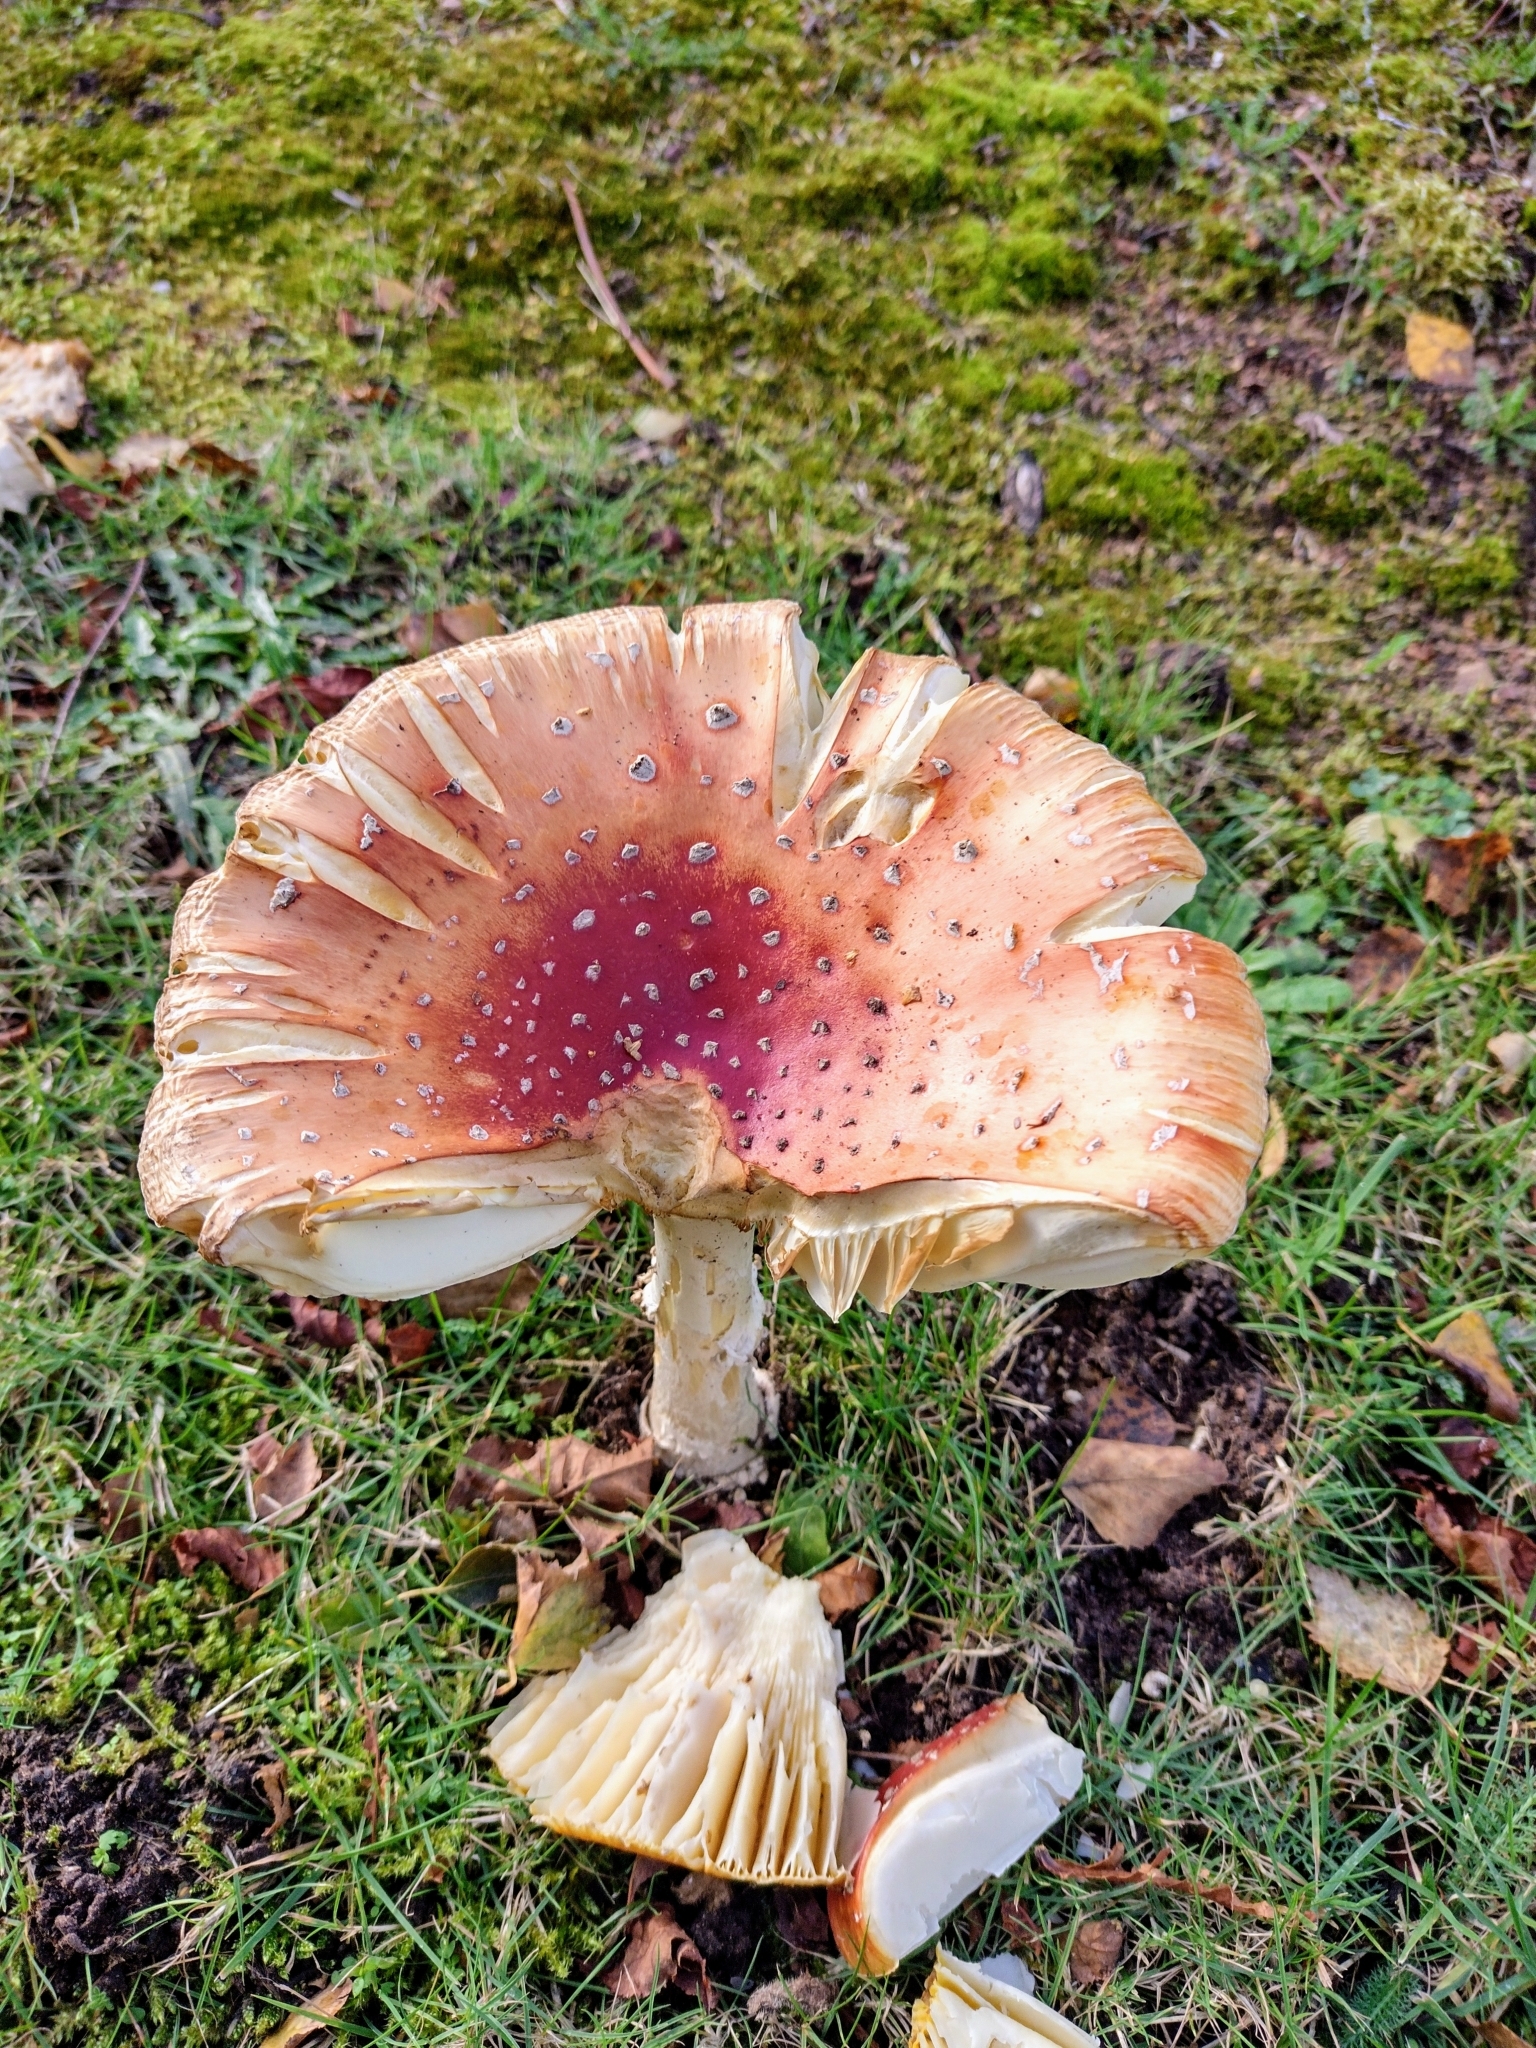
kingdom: Fungi
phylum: Basidiomycota
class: Agaricomycetes
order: Agaricales
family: Amanitaceae
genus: Amanita
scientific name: Amanita muscaria
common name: Fly agaric
